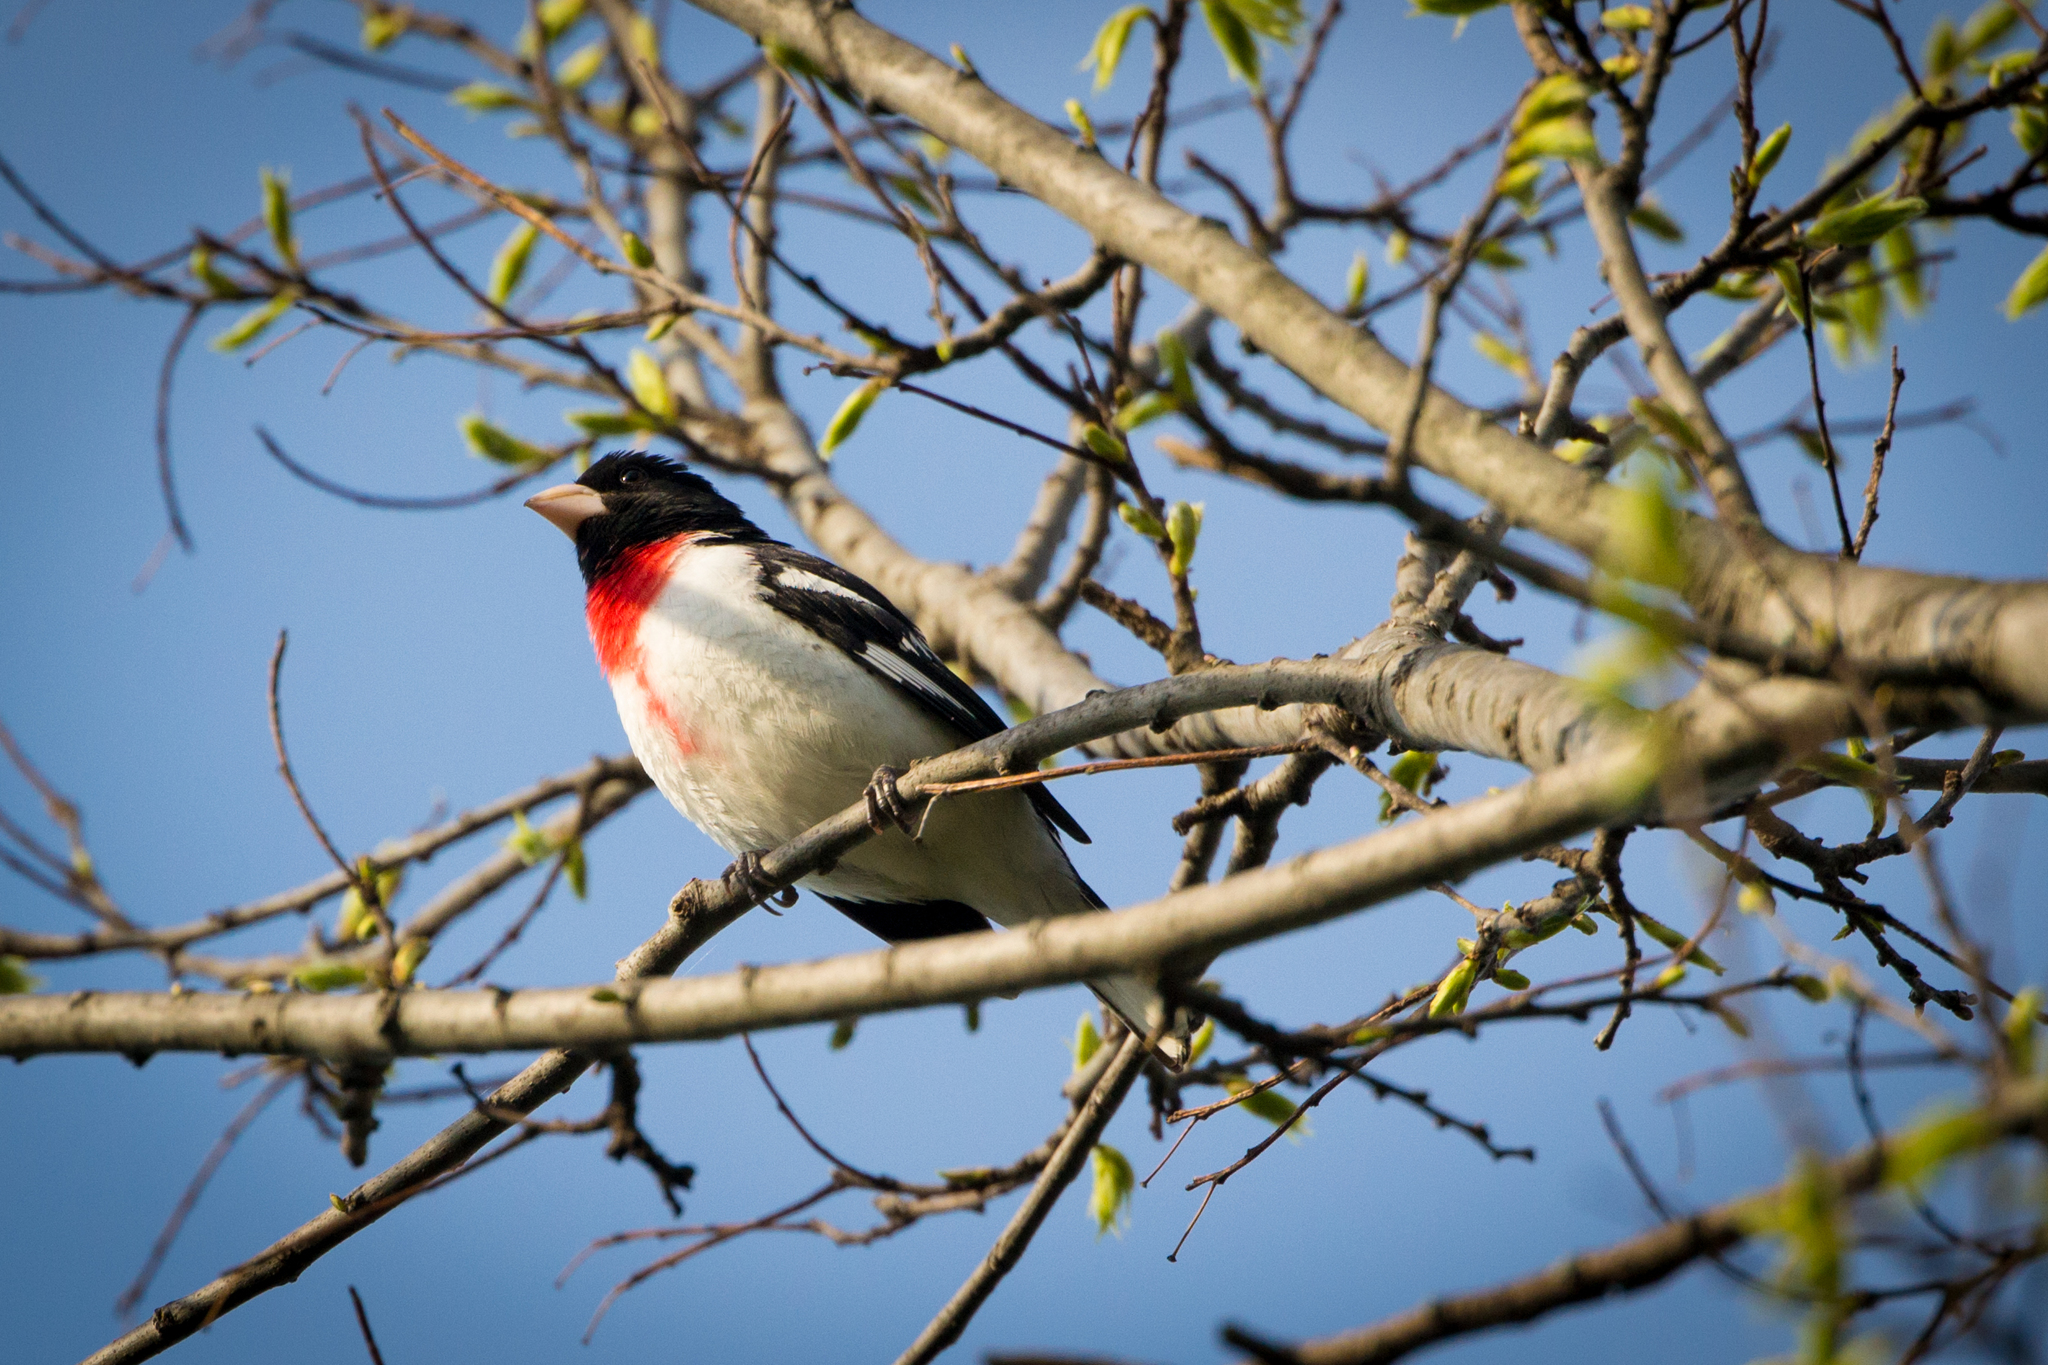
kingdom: Animalia
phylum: Chordata
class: Aves
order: Passeriformes
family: Cardinalidae
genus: Pheucticus
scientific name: Pheucticus ludovicianus
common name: Rose-breasted grosbeak
